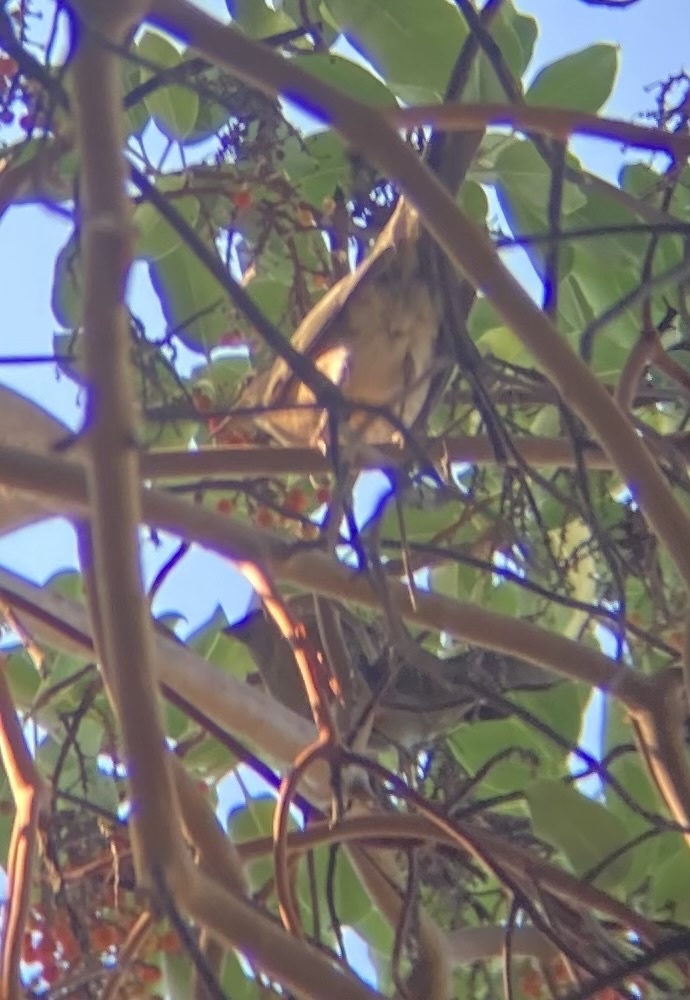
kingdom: Animalia
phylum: Chordata
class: Aves
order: Passeriformes
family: Fringillidae
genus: Pinicola
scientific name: Pinicola enucleator
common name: Pine grosbeak
